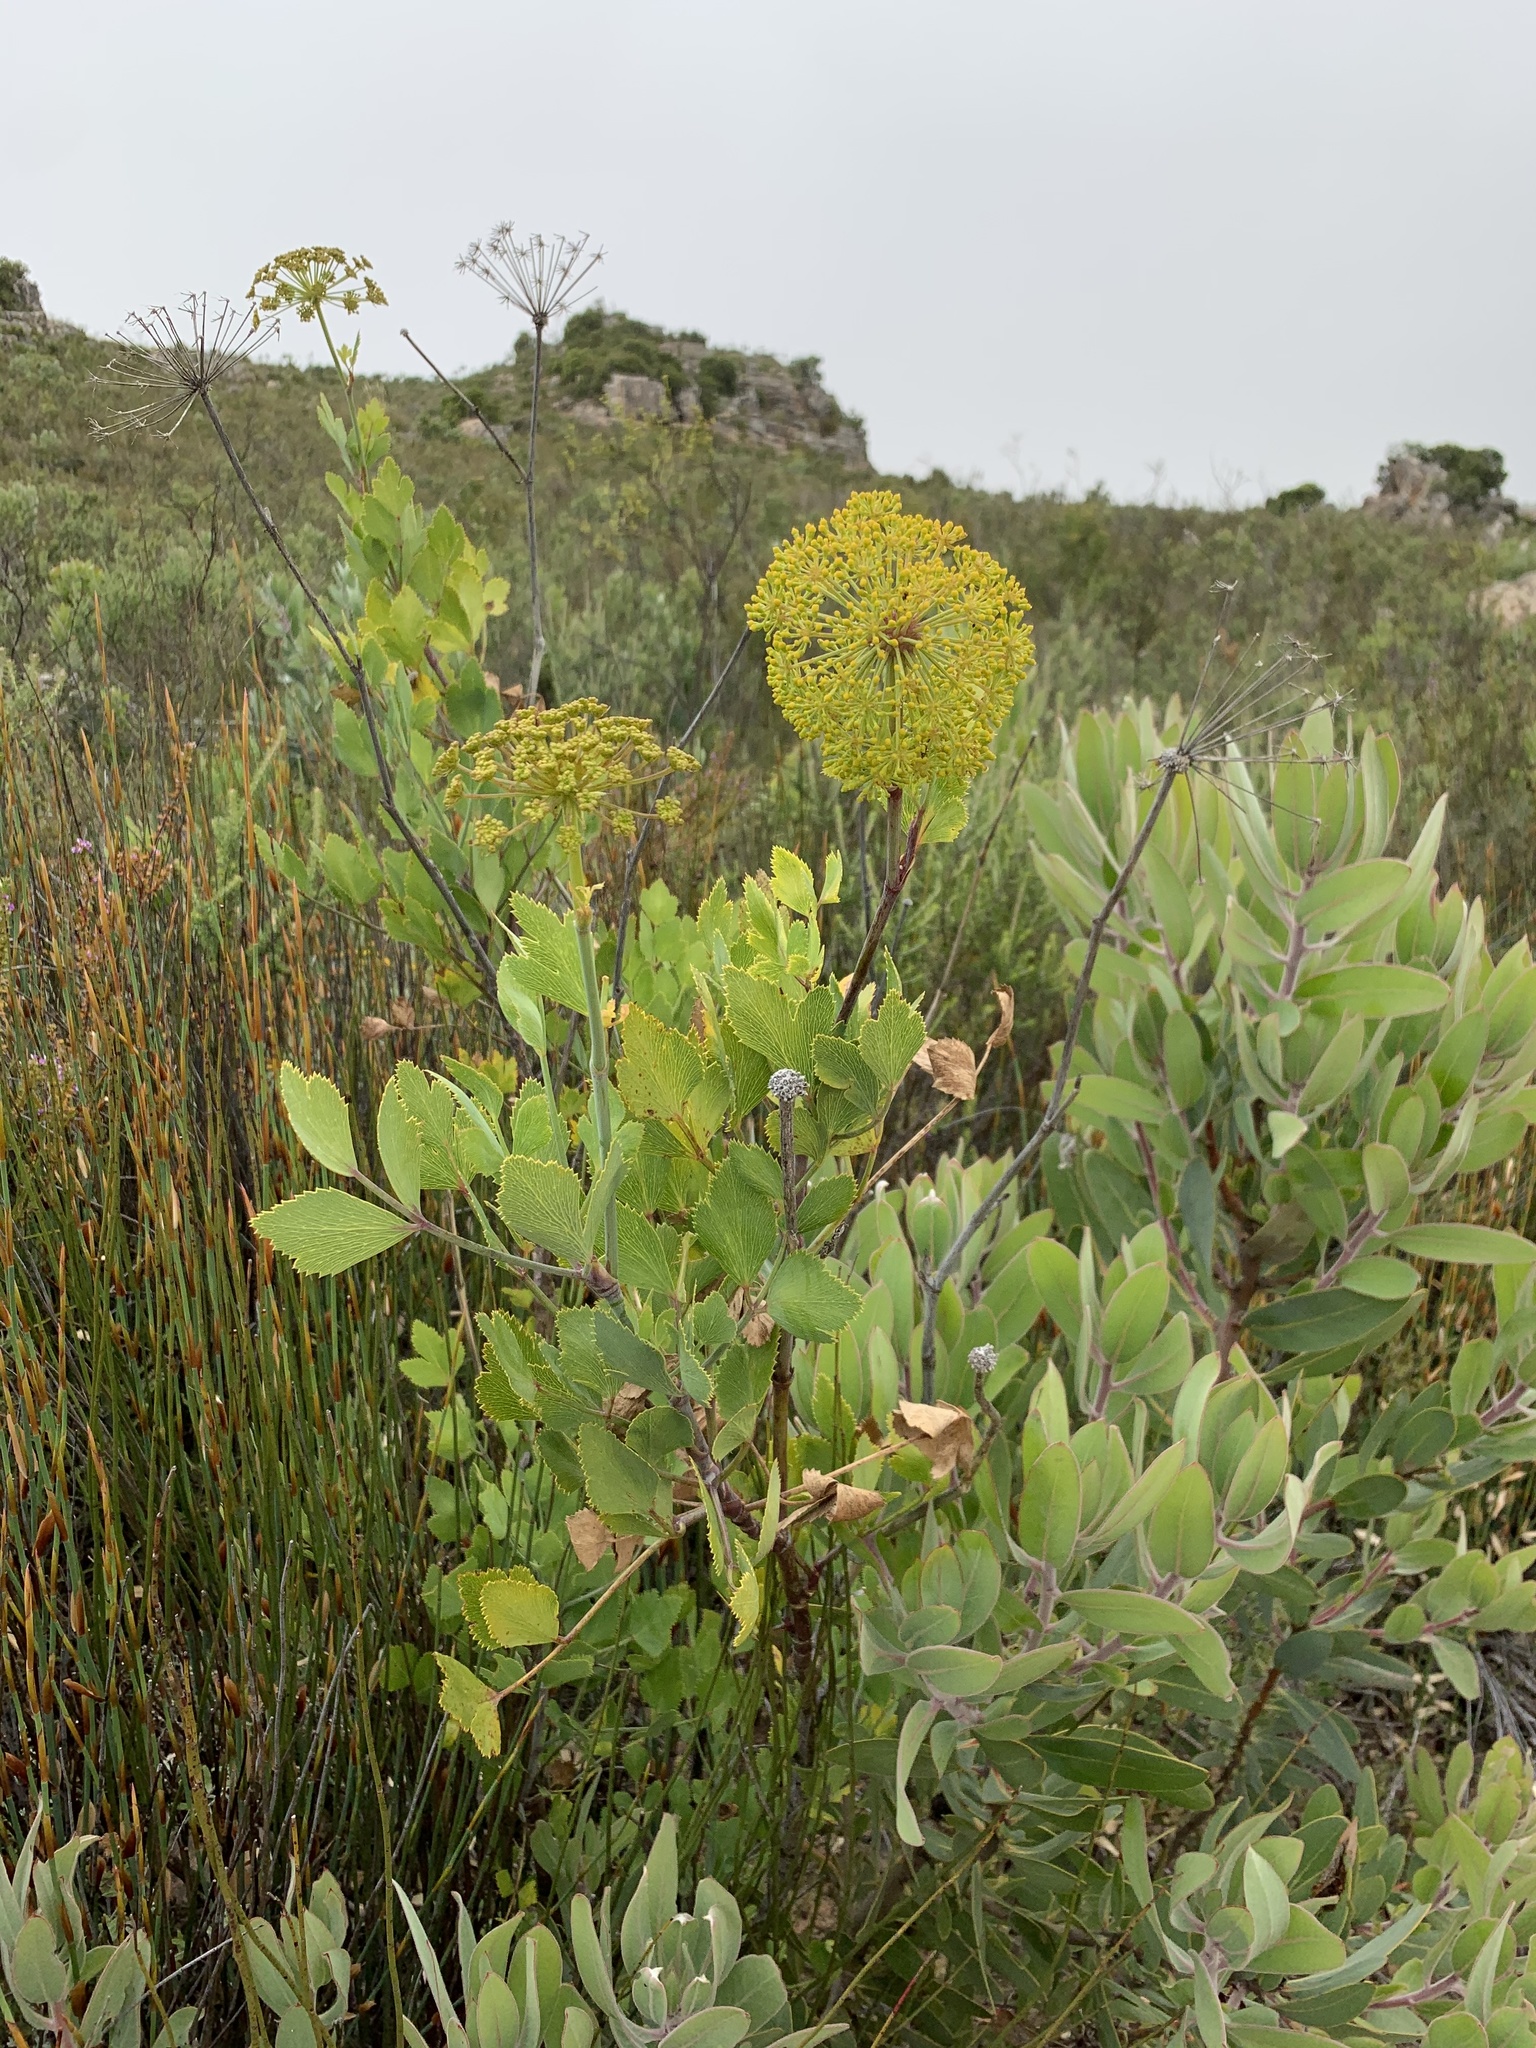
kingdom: Plantae
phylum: Tracheophyta
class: Magnoliopsida
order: Apiales
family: Apiaceae
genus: Notobubon
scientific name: Notobubon galbanum
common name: Blisterbush
